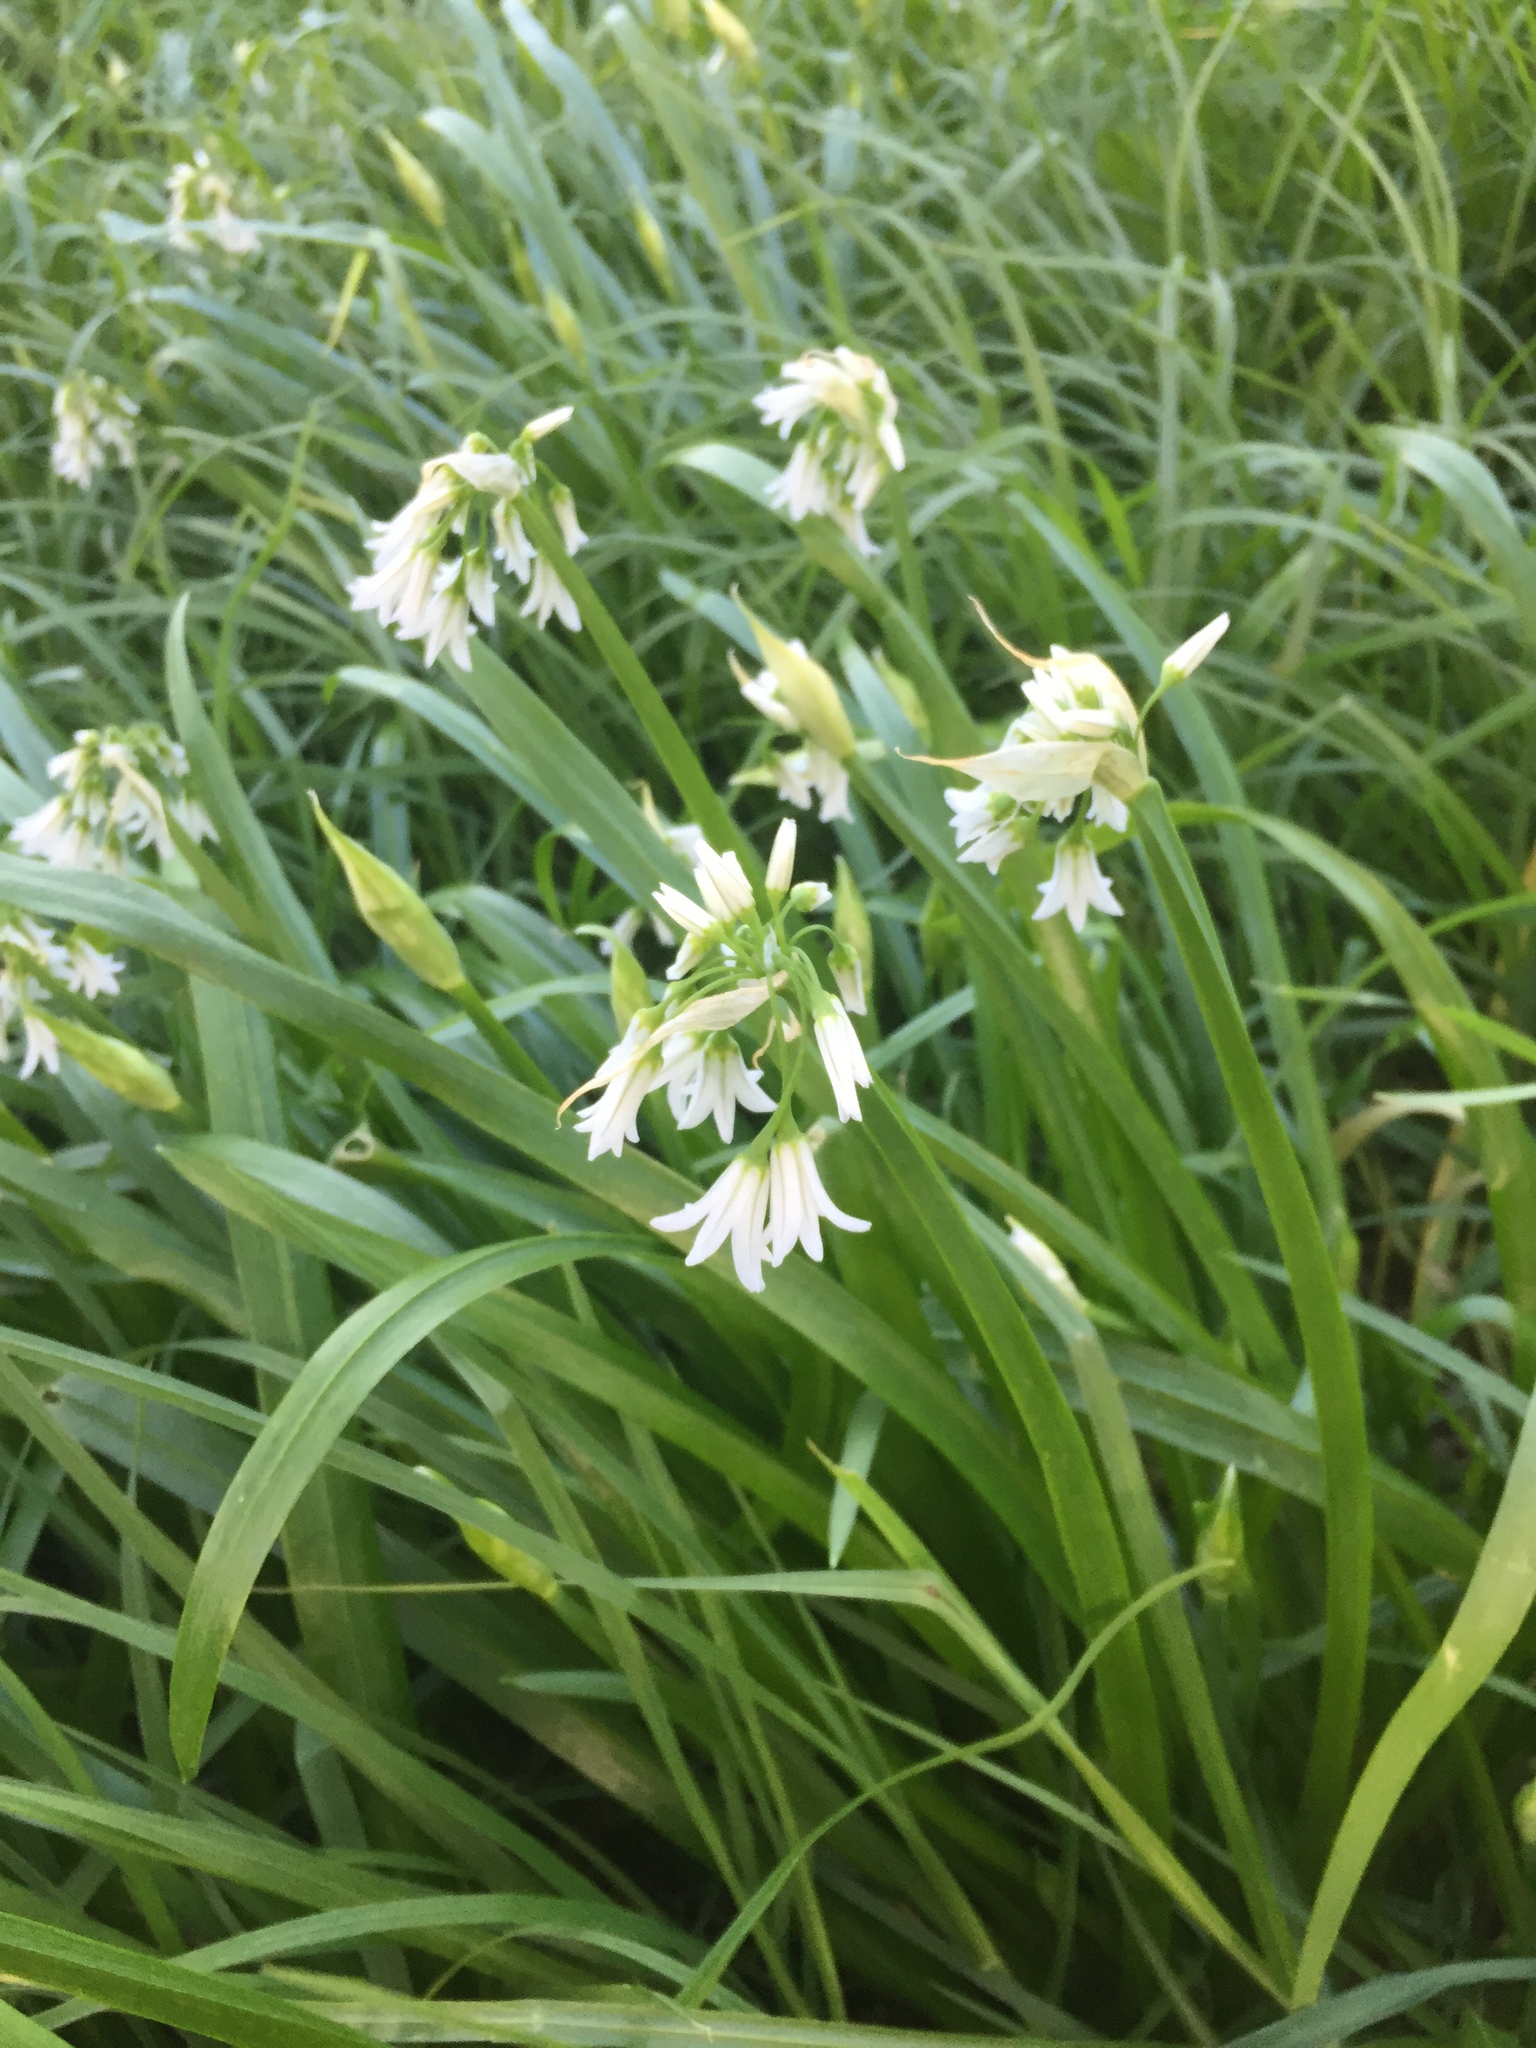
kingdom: Plantae
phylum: Tracheophyta
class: Liliopsida
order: Asparagales
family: Amaryllidaceae
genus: Allium
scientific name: Allium triquetrum
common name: Three-cornered garlic
